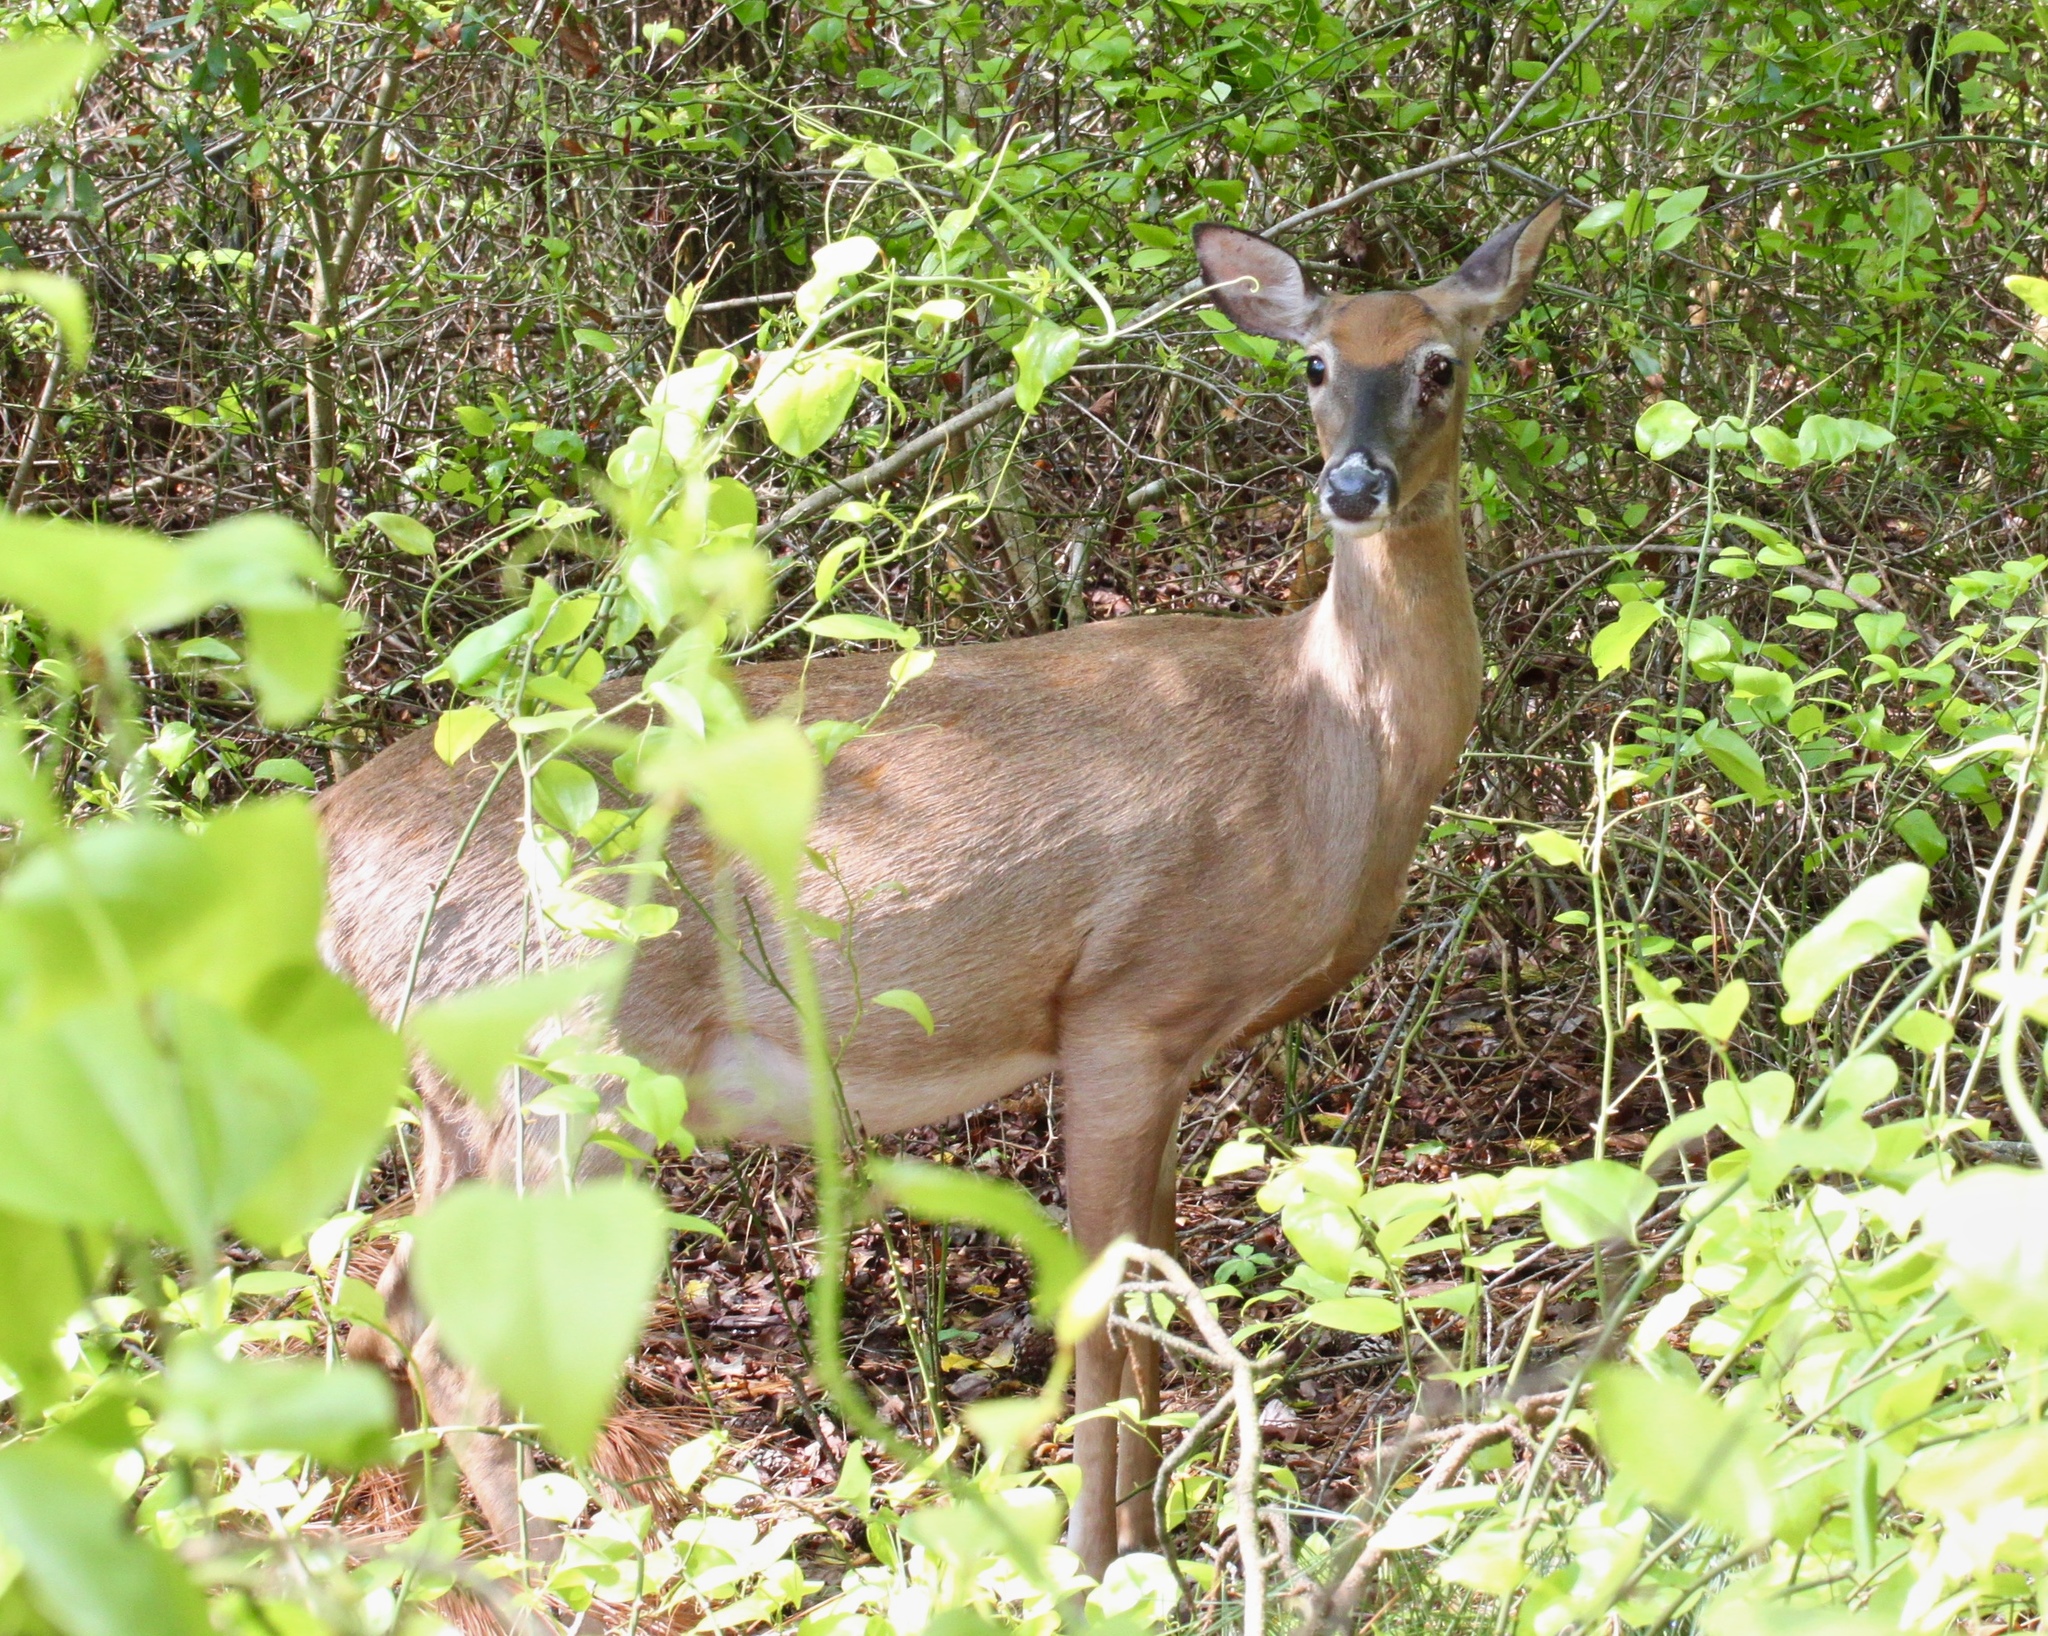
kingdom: Animalia
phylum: Chordata
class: Mammalia
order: Artiodactyla
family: Cervidae
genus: Odocoileus
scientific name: Odocoileus virginianus
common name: White-tailed deer
